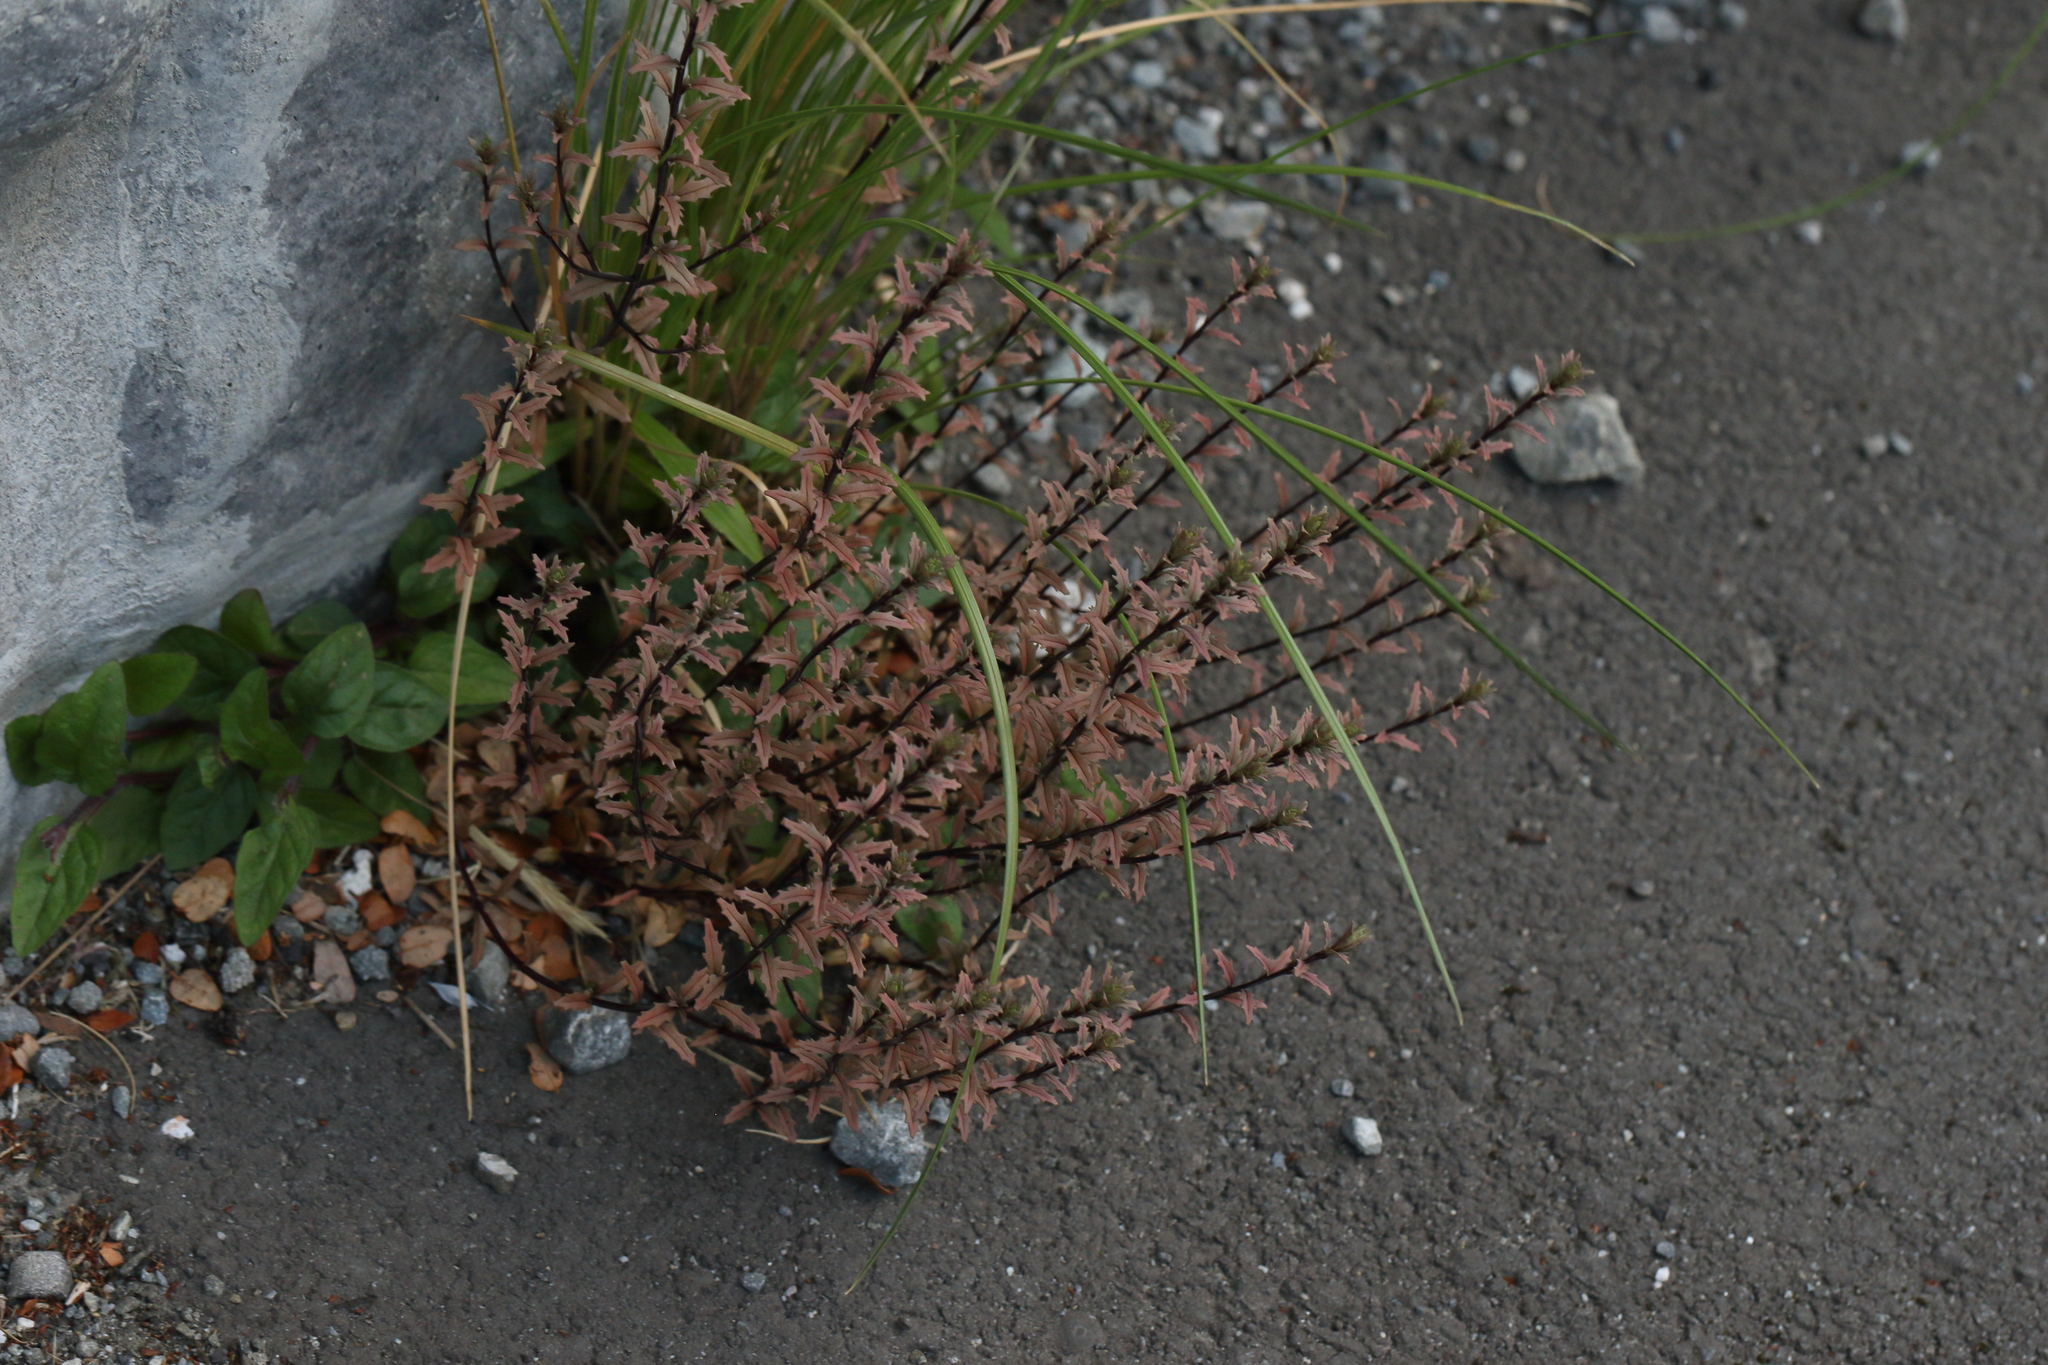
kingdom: Plantae
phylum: Tracheophyta
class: Magnoliopsida
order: Myrtales
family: Onagraceae
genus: Epilobium
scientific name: Epilobium melanocaulon
